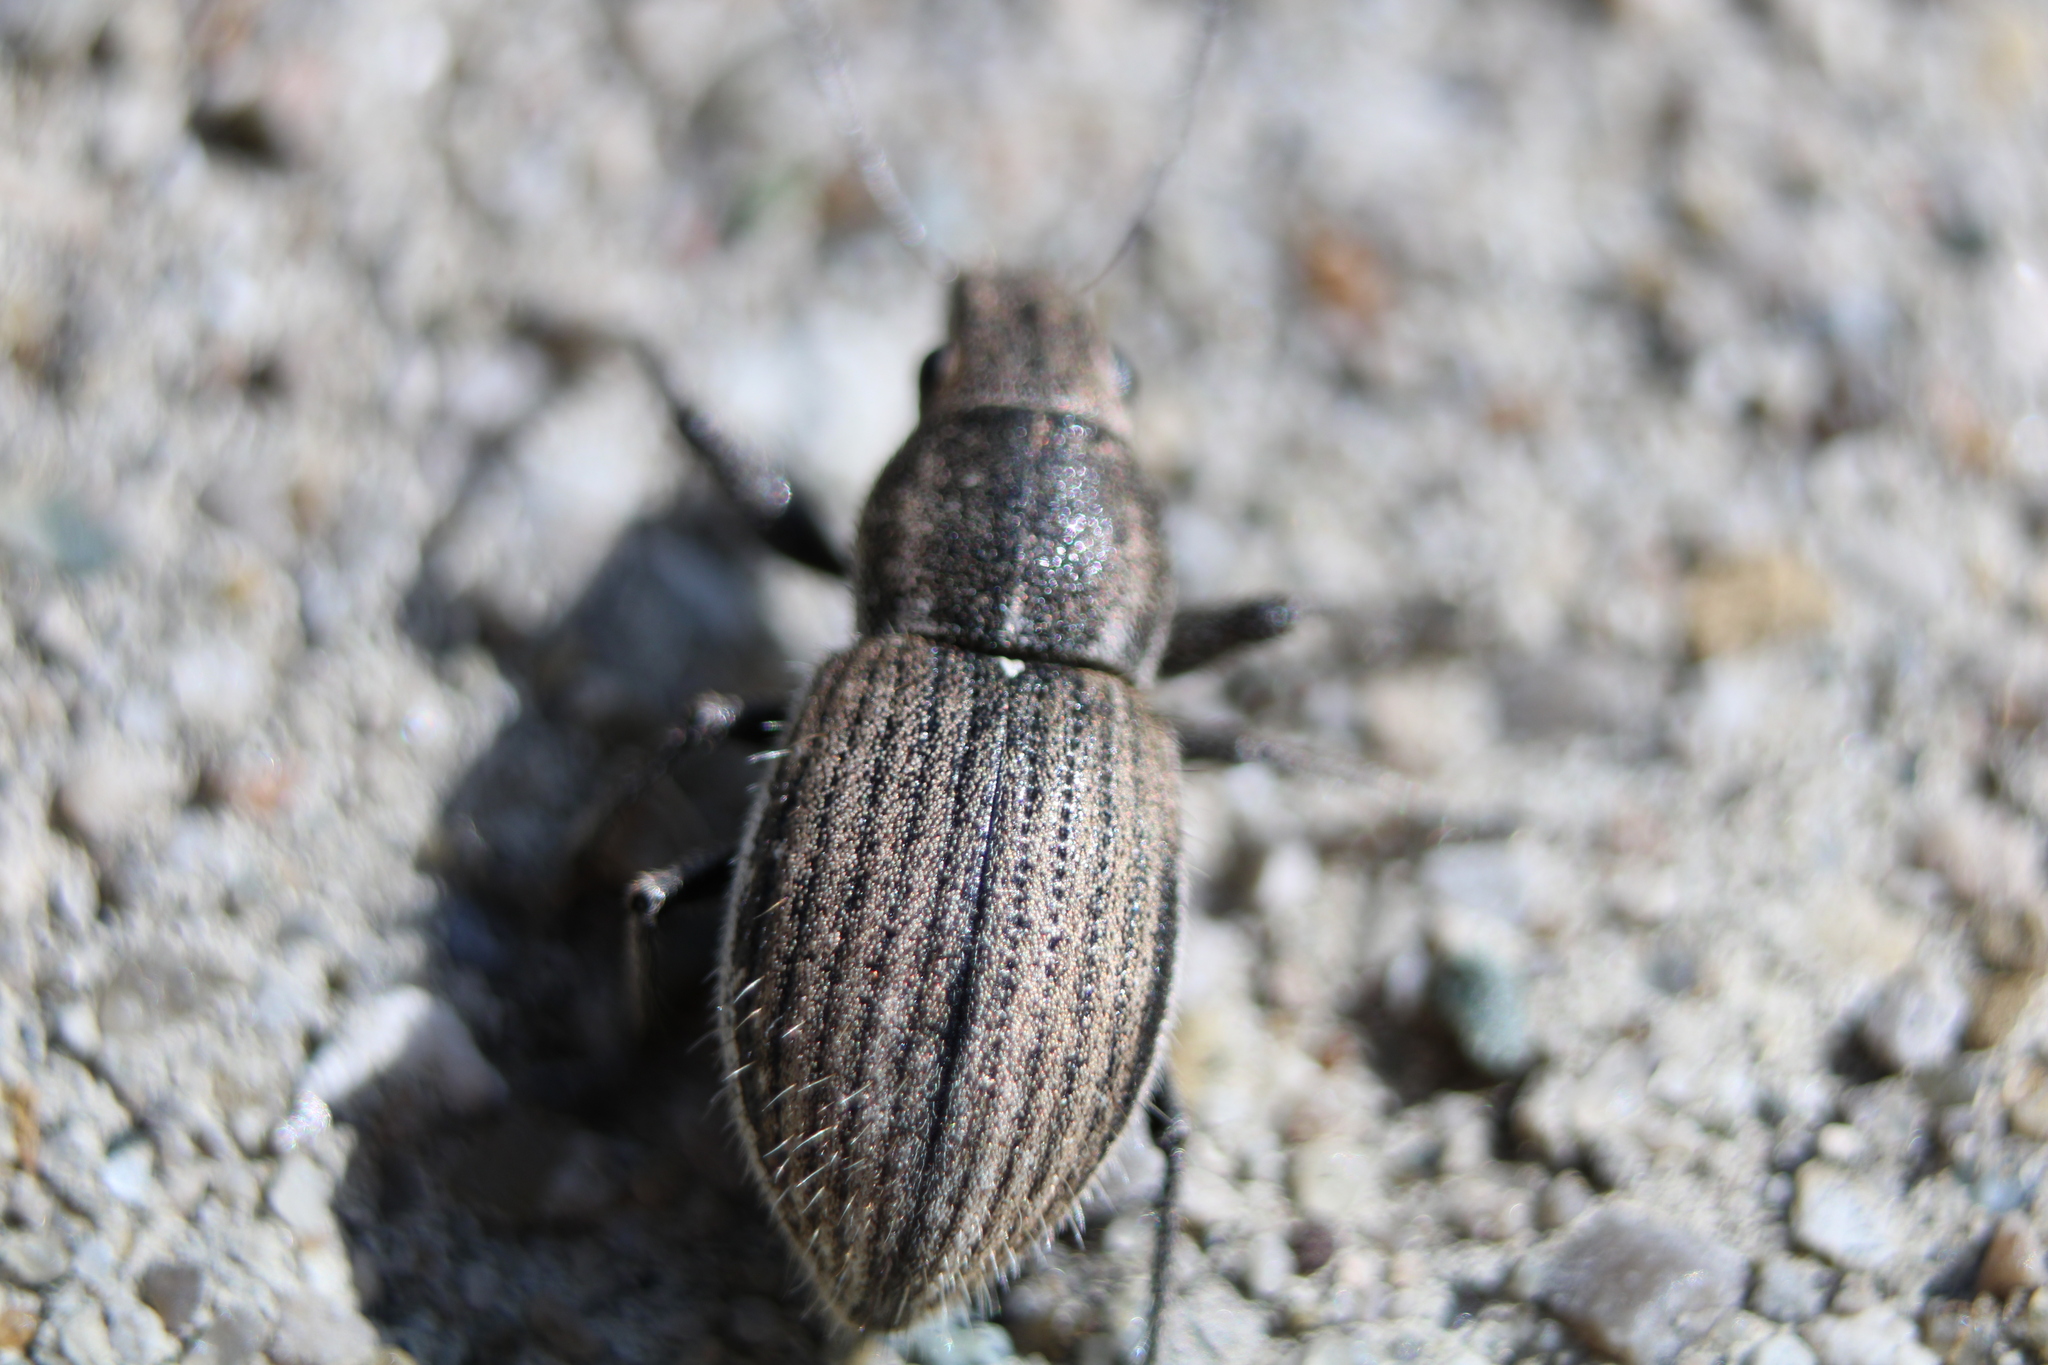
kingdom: Animalia
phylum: Arthropoda
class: Insecta
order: Coleoptera
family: Curculionidae
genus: Naupactus
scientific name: Naupactus leucoloma
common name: Whitefringed beetle
